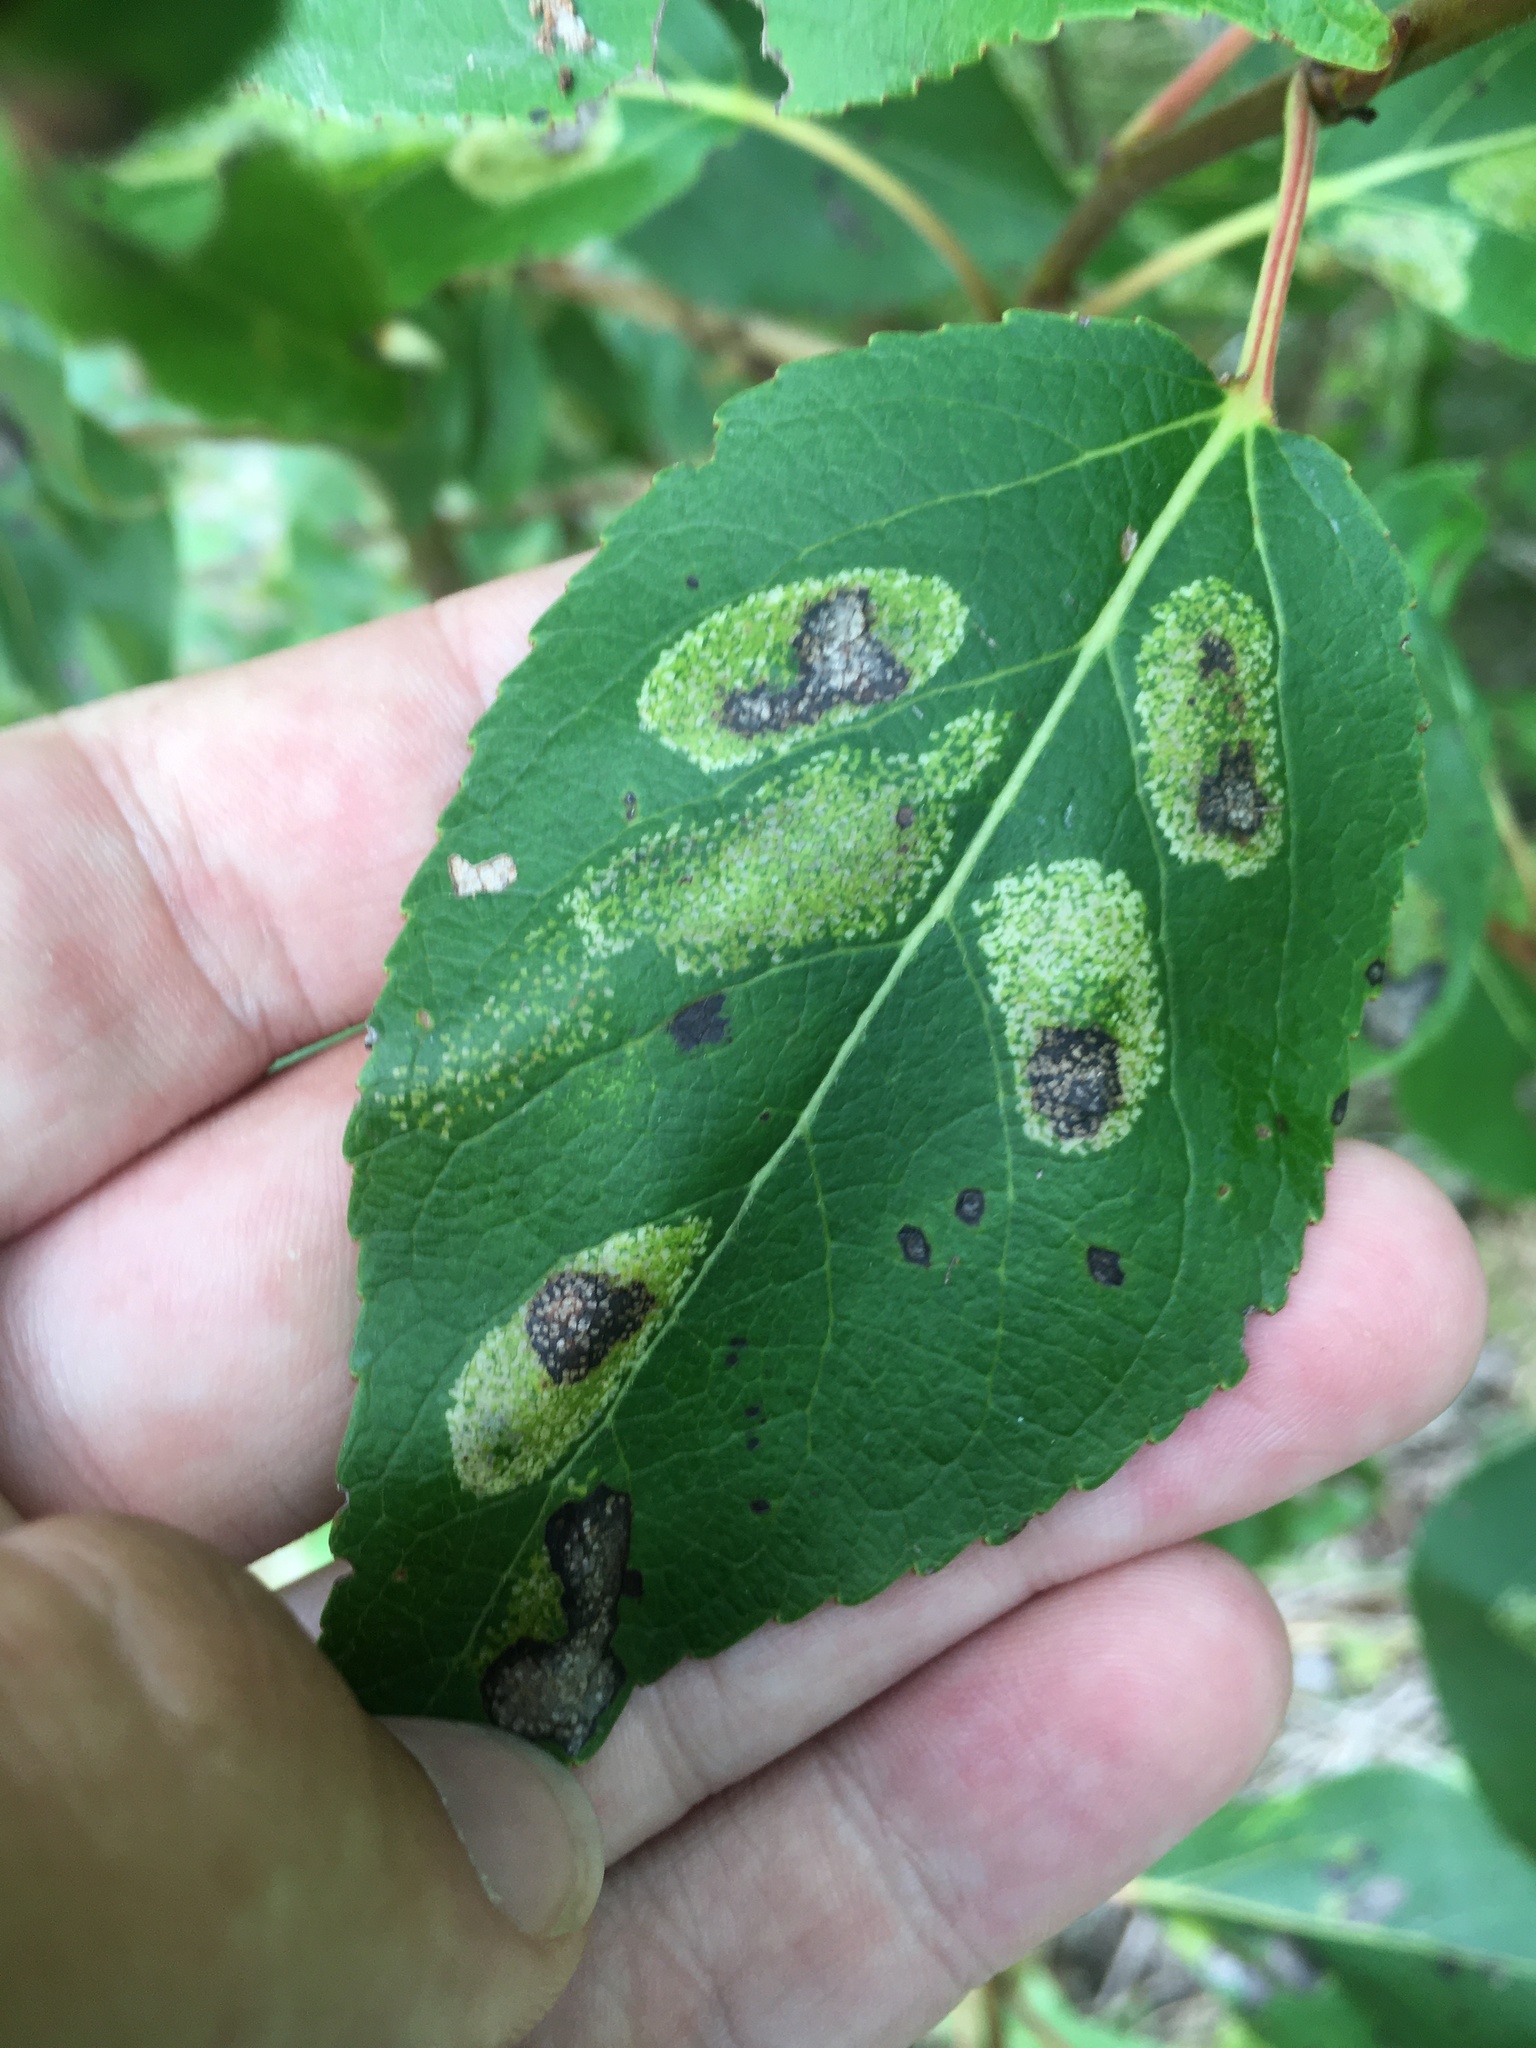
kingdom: Animalia
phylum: Arthropoda
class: Insecta
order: Lepidoptera
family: Gracillariidae
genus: Phyllonorycter
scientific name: Phyllonorycter
